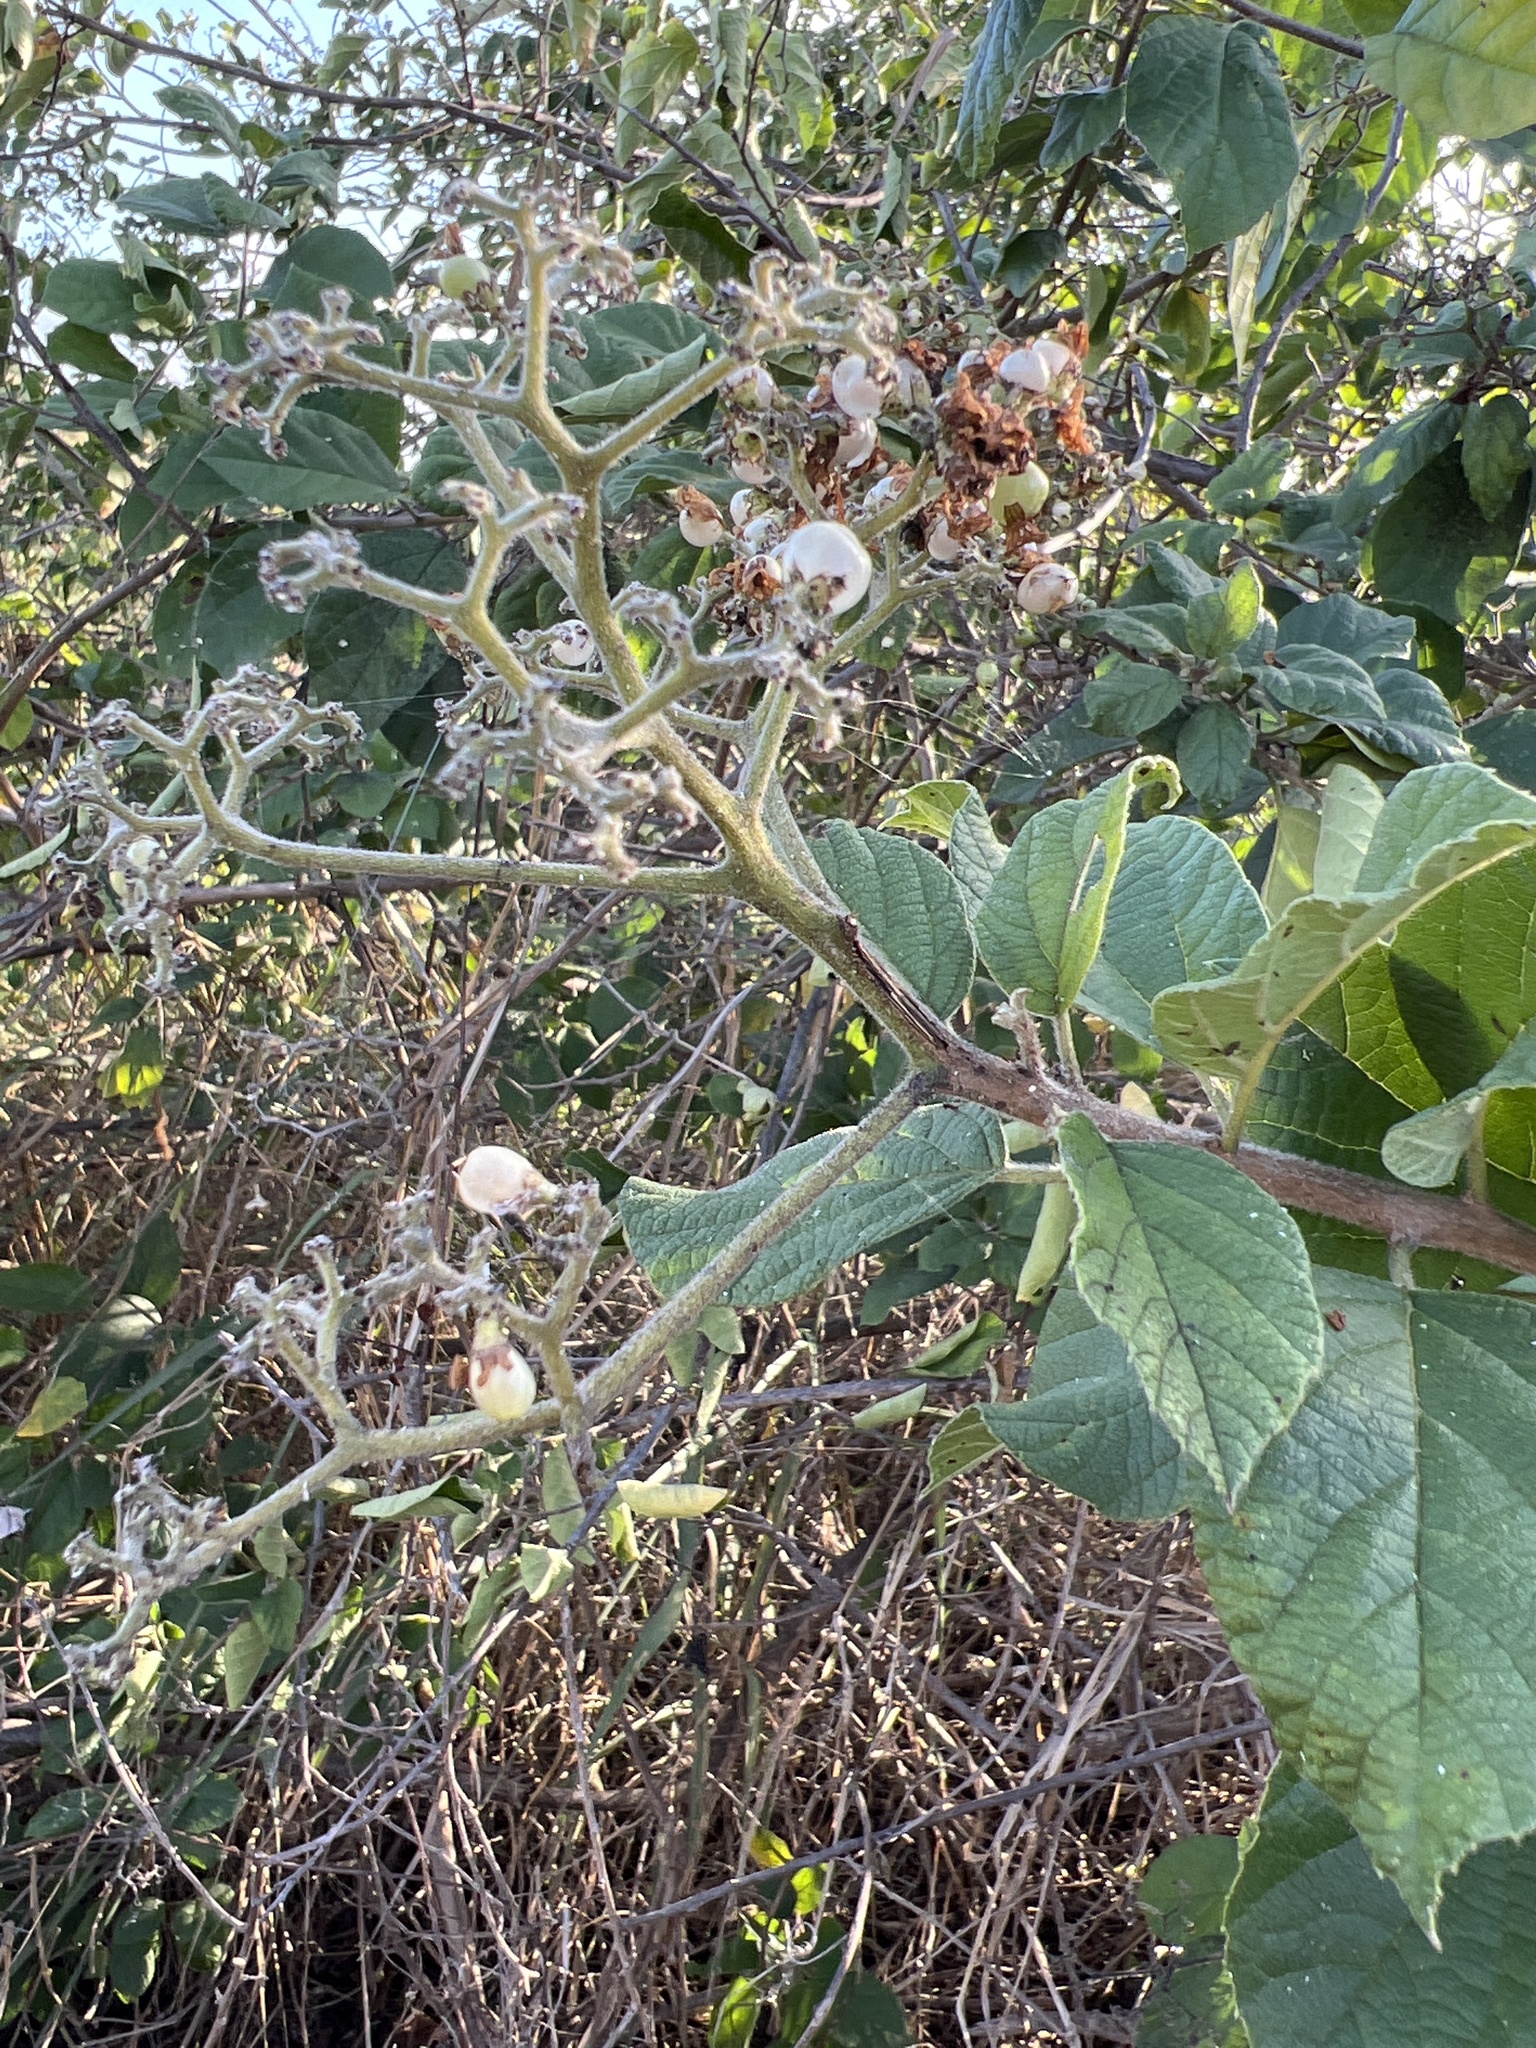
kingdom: Plantae
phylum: Tracheophyta
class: Magnoliopsida
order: Boraginales
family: Cordiaceae
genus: Cordia
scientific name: Cordia dentata
